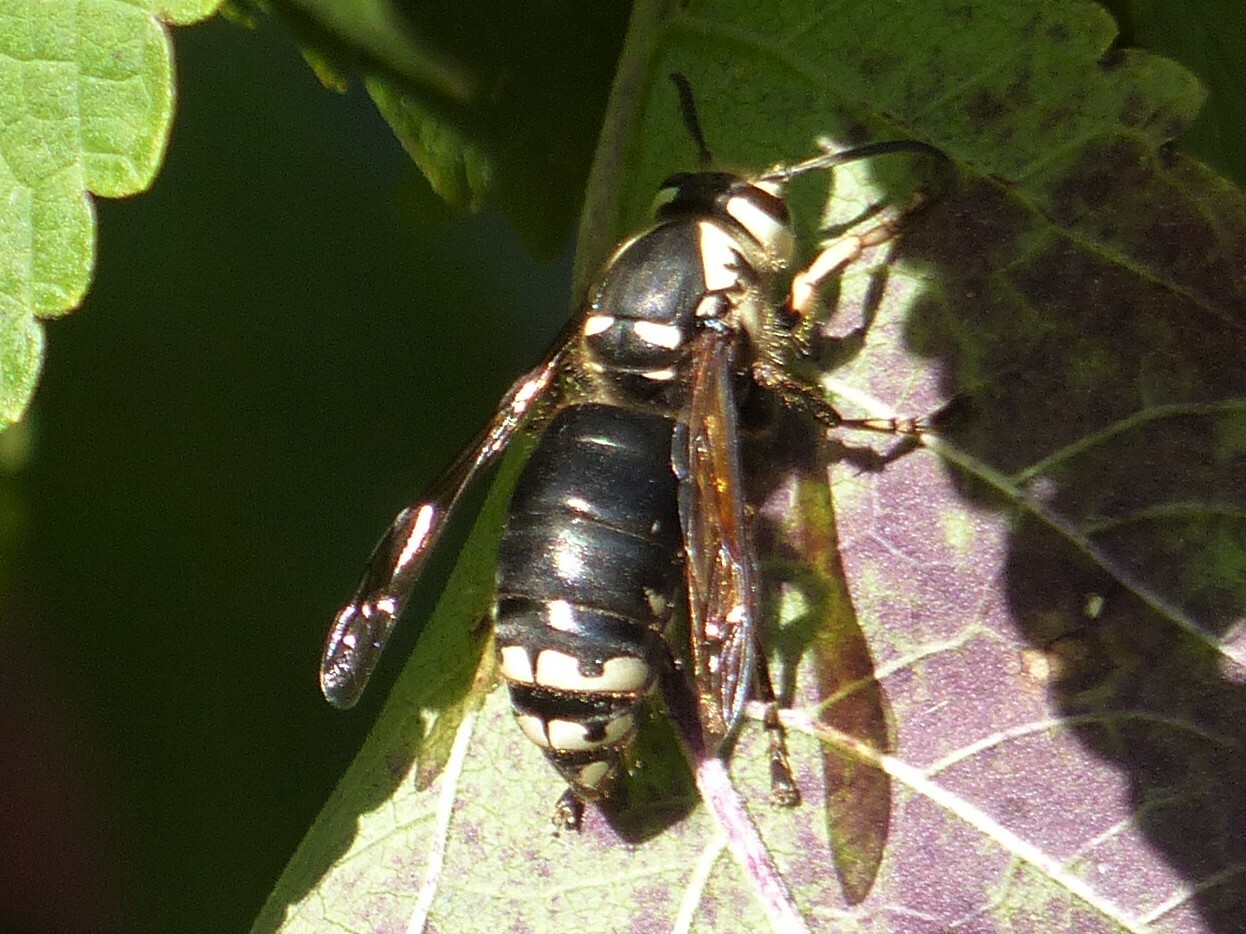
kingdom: Animalia
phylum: Arthropoda
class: Insecta
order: Hymenoptera
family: Vespidae
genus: Dolichovespula
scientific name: Dolichovespula maculata
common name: Bald-faced hornet
